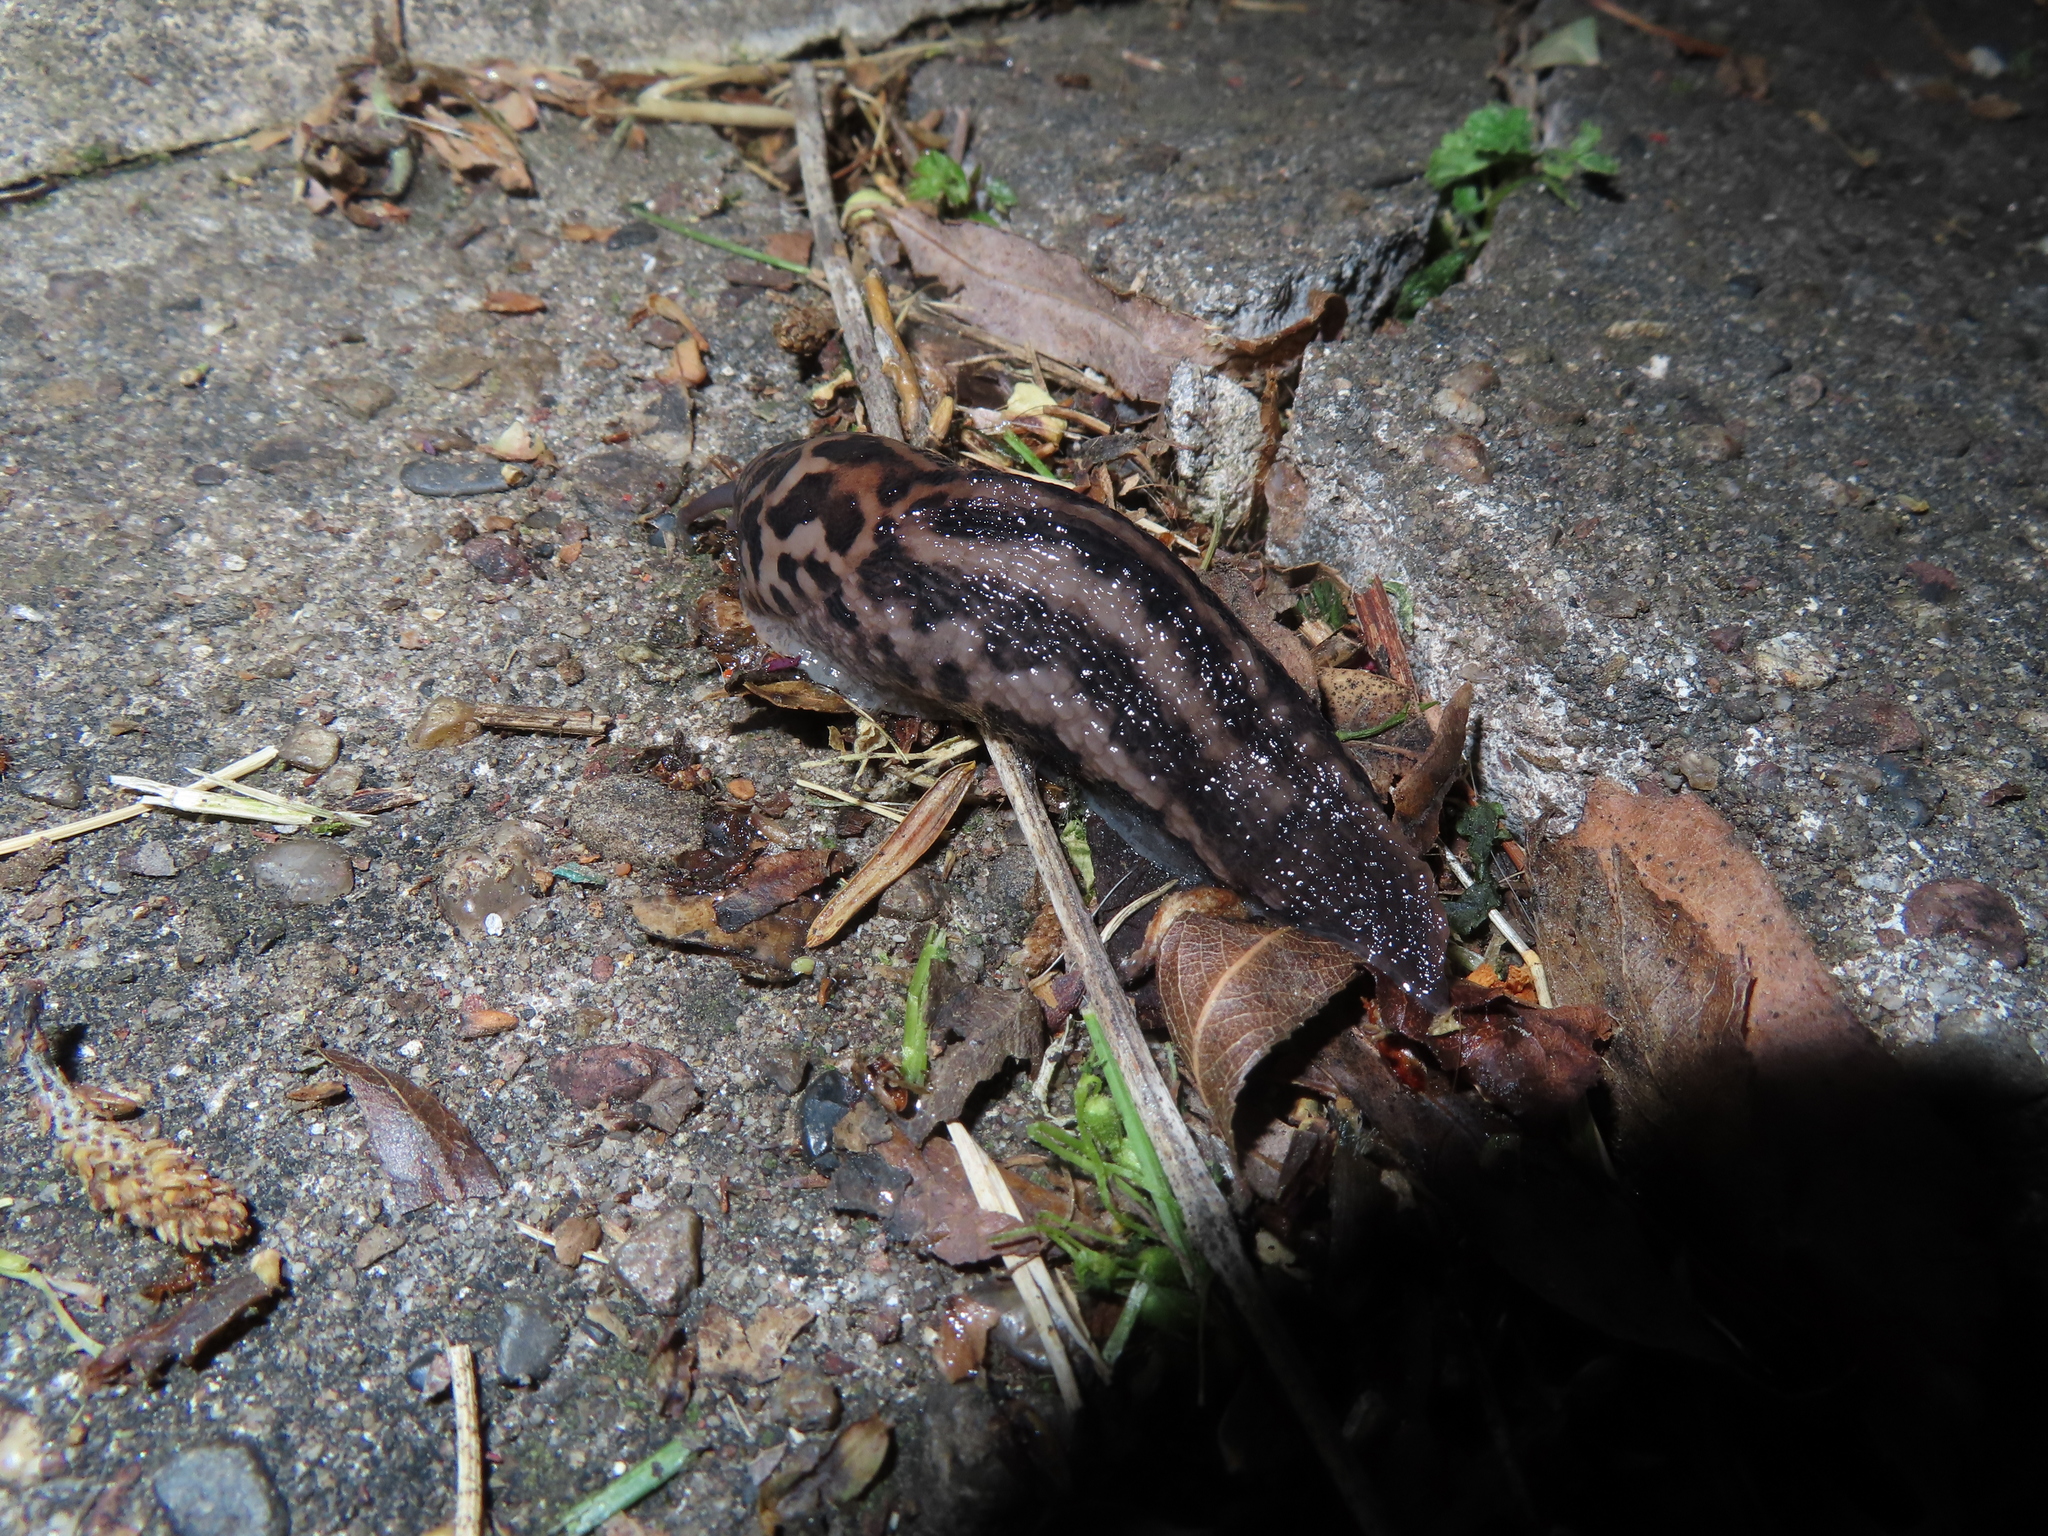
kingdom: Animalia
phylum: Mollusca
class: Gastropoda
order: Stylommatophora
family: Limacidae
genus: Limax
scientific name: Limax maximus
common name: Great grey slug
